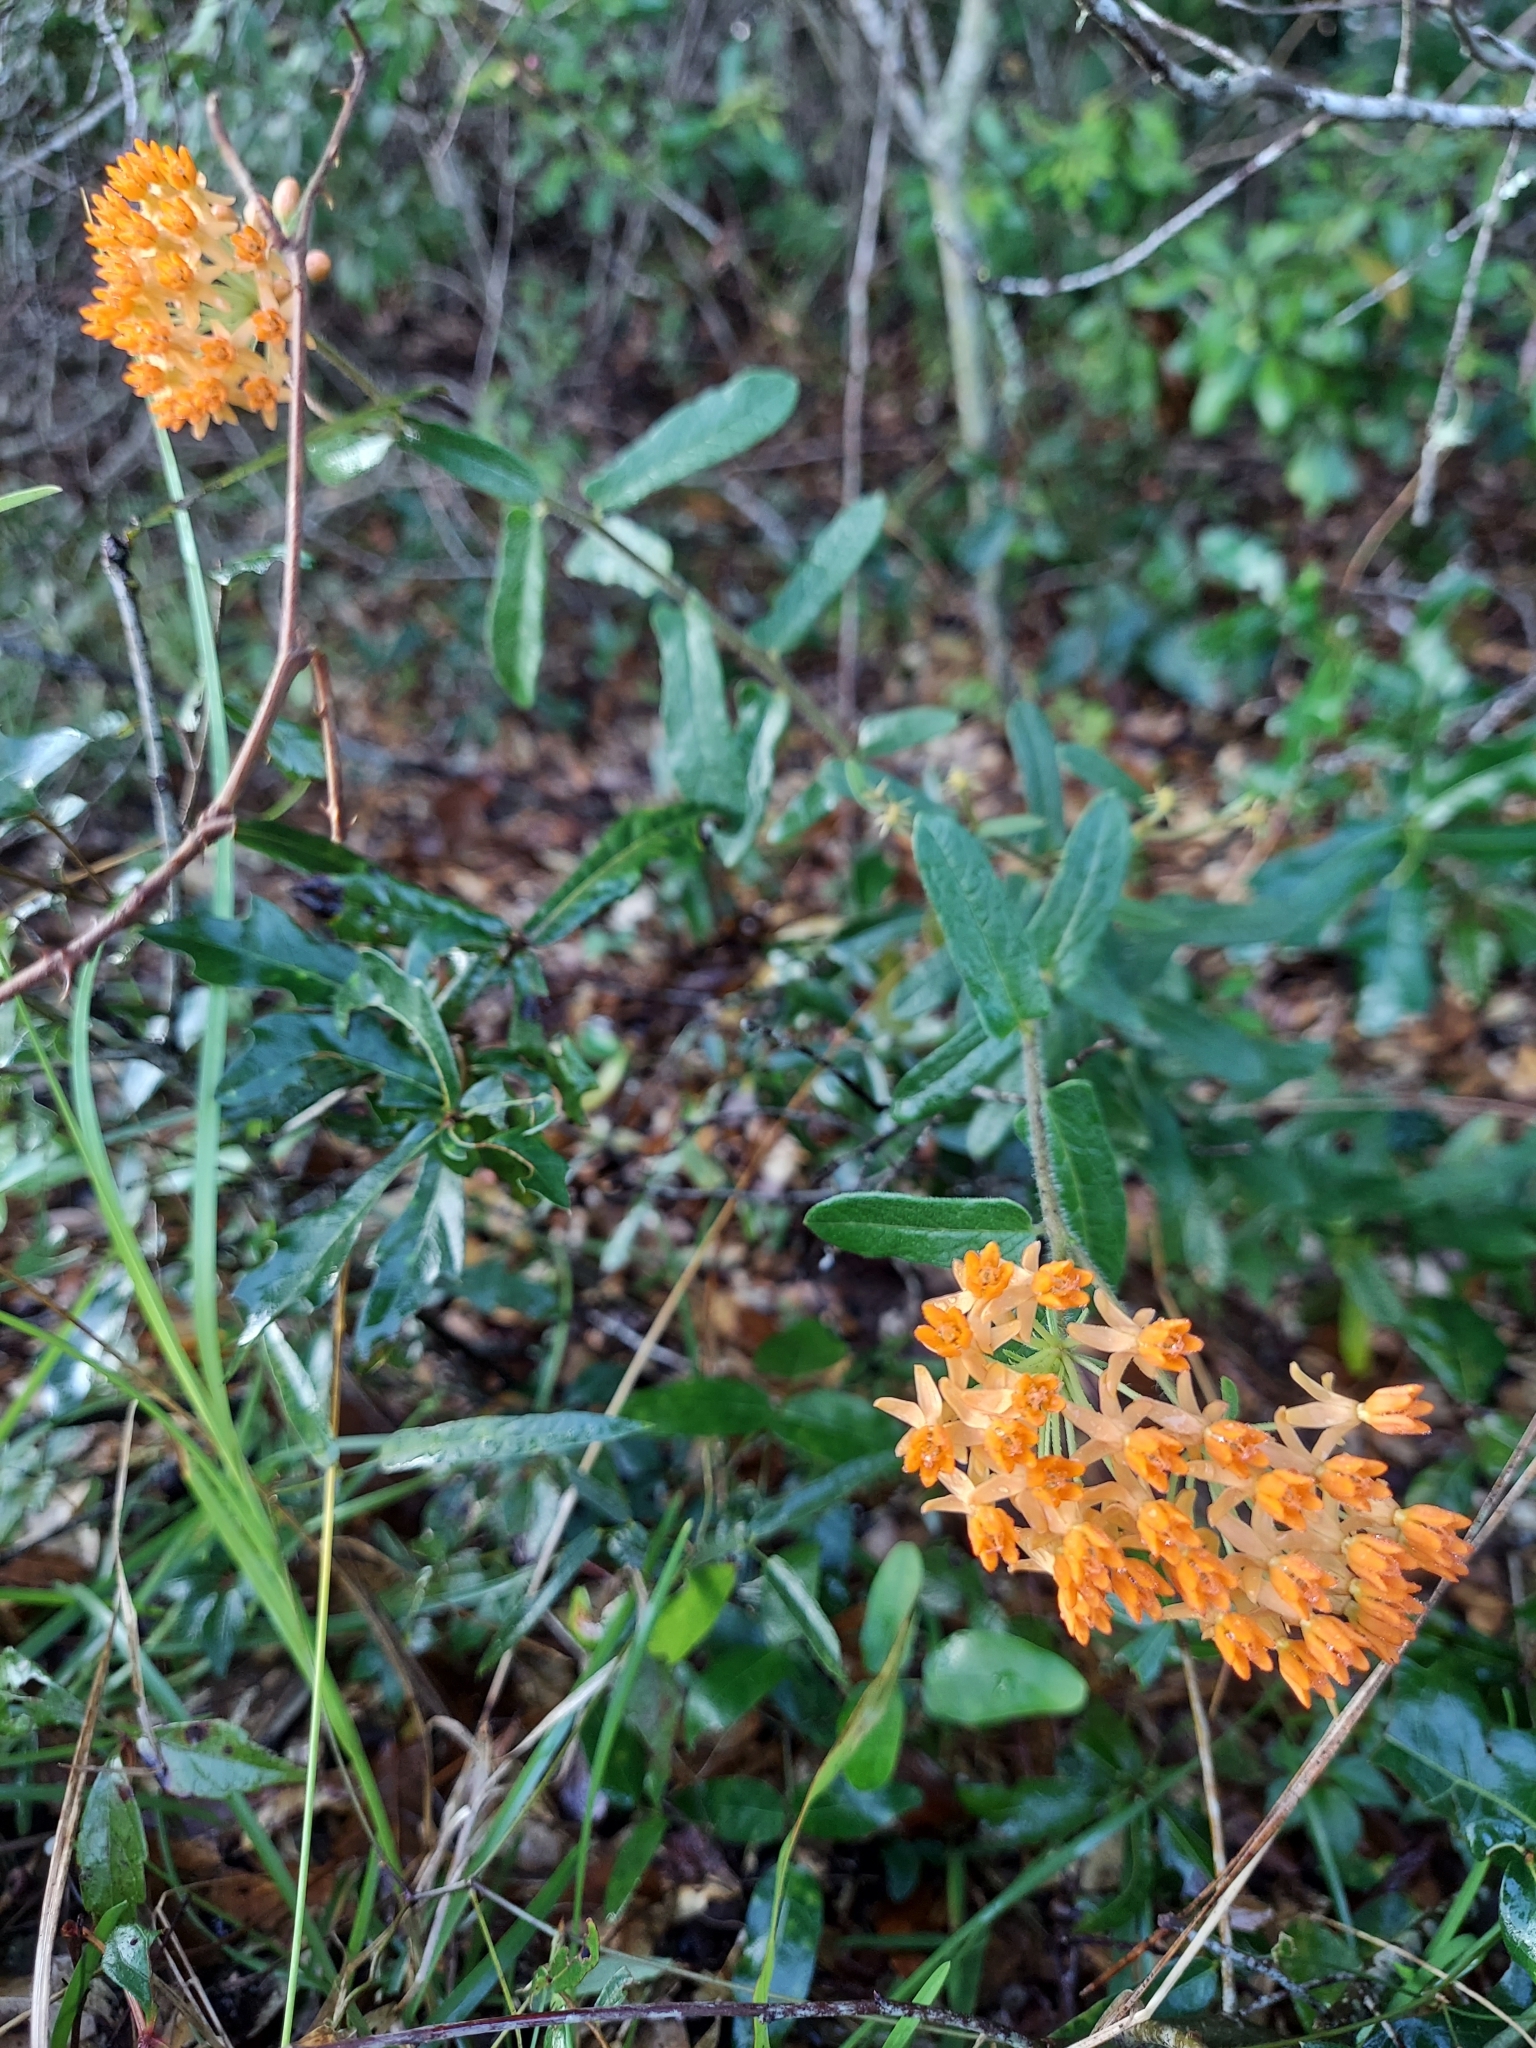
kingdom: Plantae
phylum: Tracheophyta
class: Magnoliopsida
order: Gentianales
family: Apocynaceae
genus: Asclepias
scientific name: Asclepias tuberosa
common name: Butterfly milkweed
